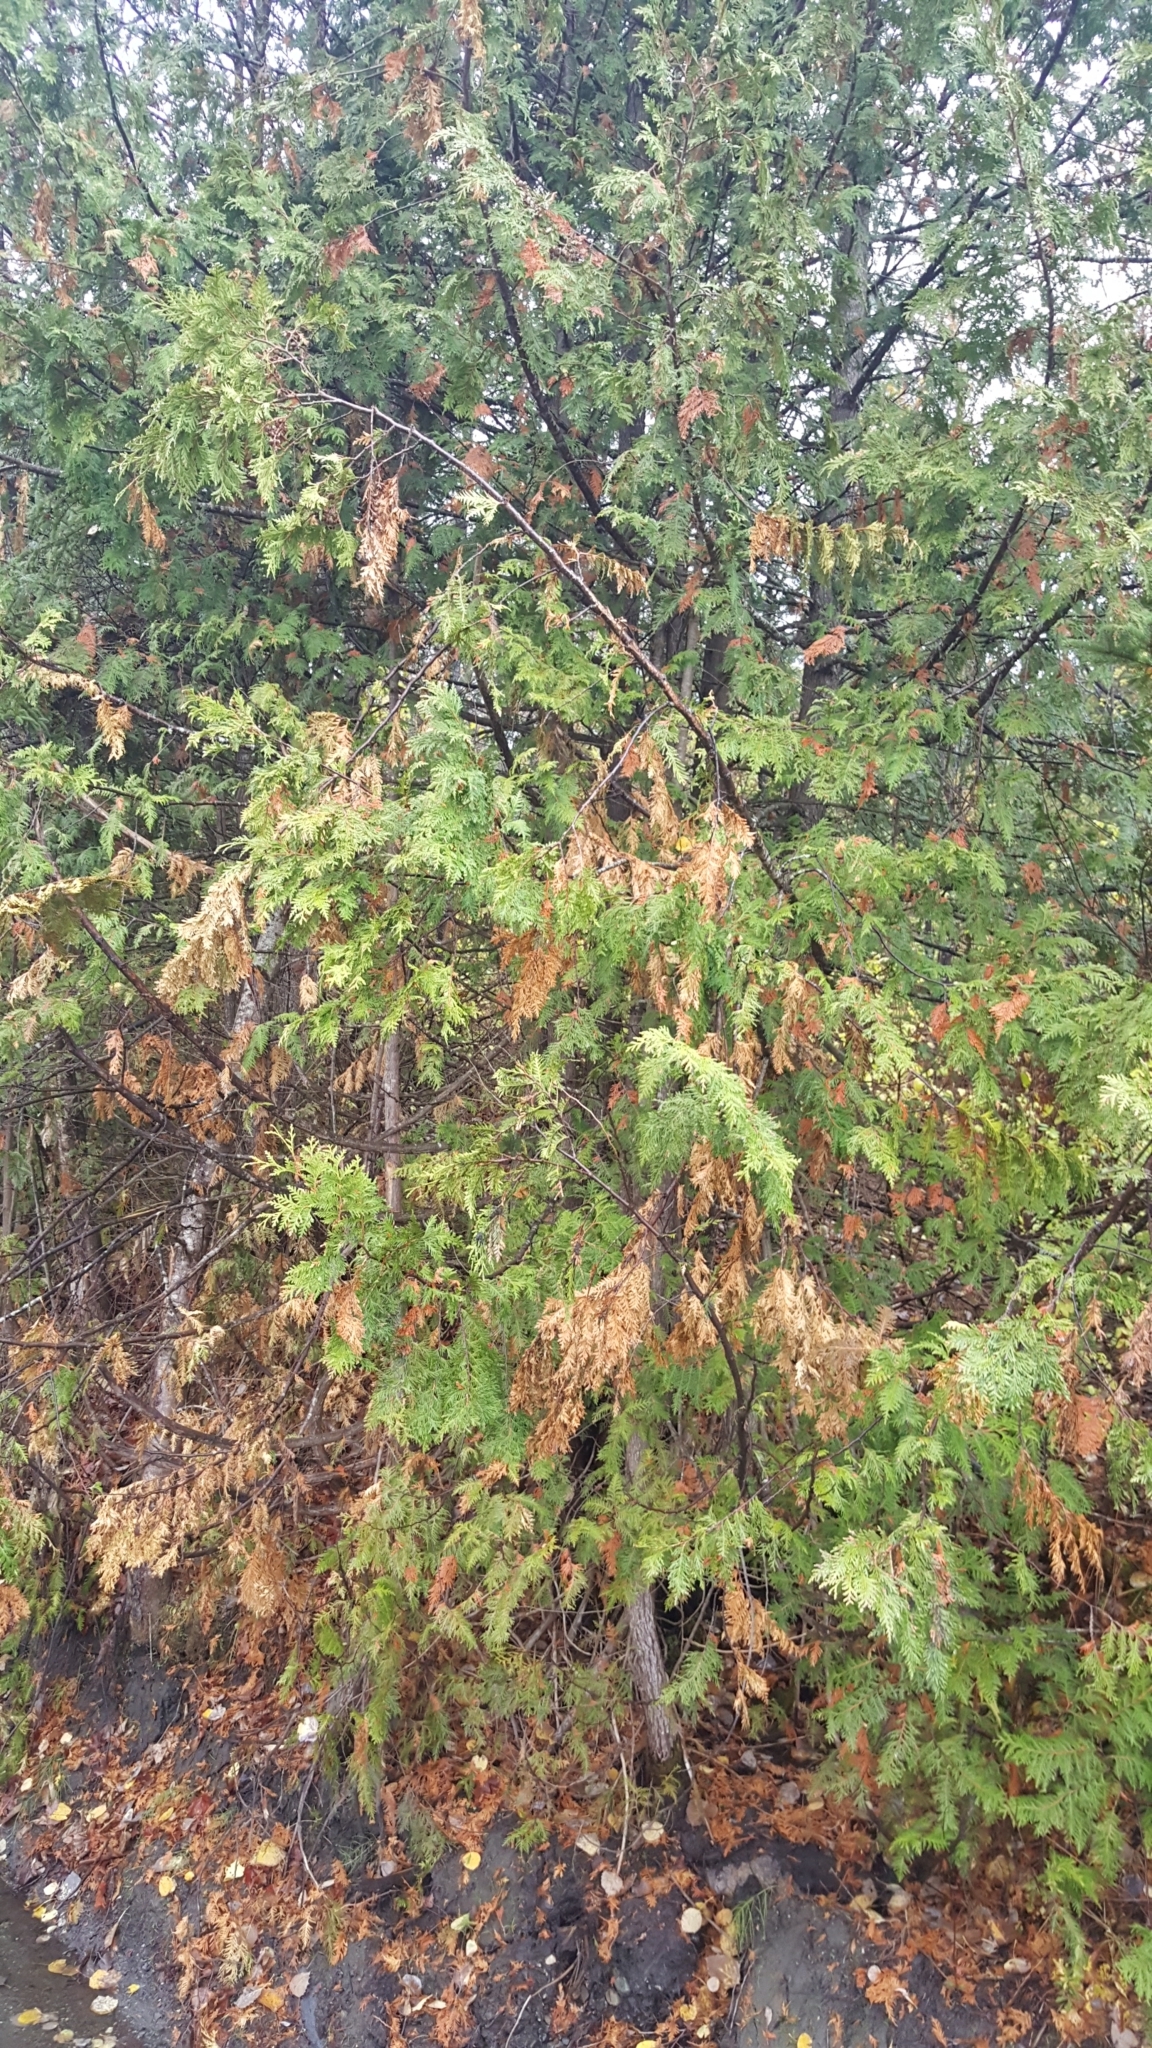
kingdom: Plantae
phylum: Tracheophyta
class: Pinopsida
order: Pinales
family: Cupressaceae
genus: Thuja
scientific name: Thuja occidentalis
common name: Northern white-cedar
